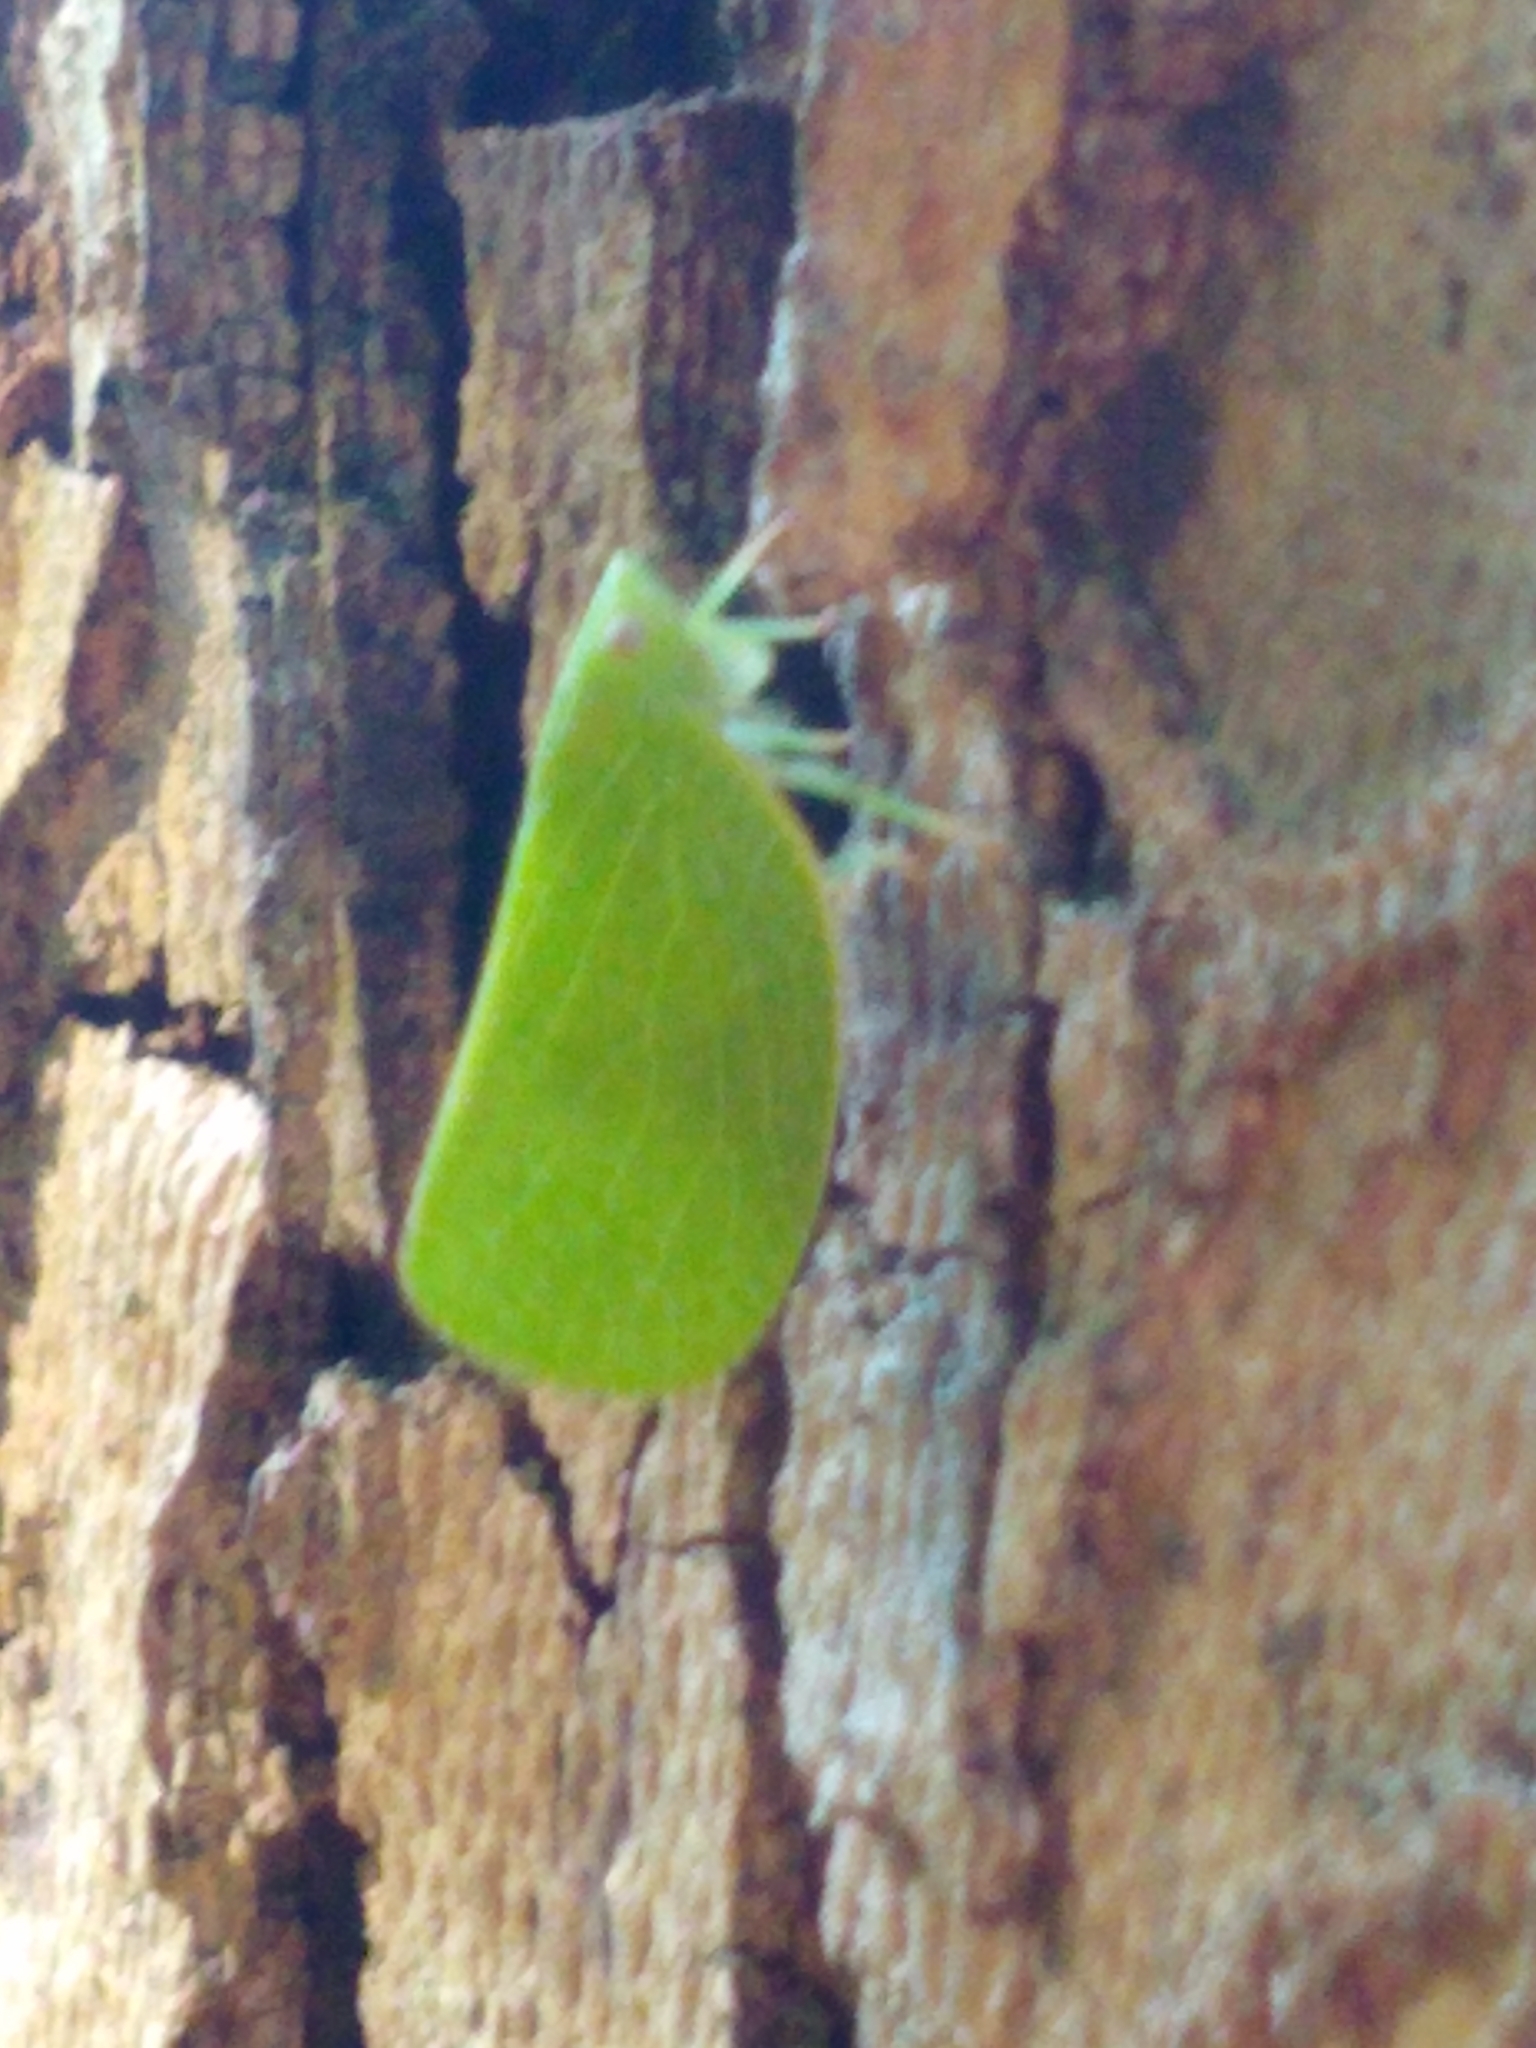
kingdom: Animalia
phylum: Arthropoda
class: Insecta
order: Hemiptera
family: Acanaloniidae
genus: Acanalonia
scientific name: Acanalonia conica
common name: Green cone-headed planthopper
